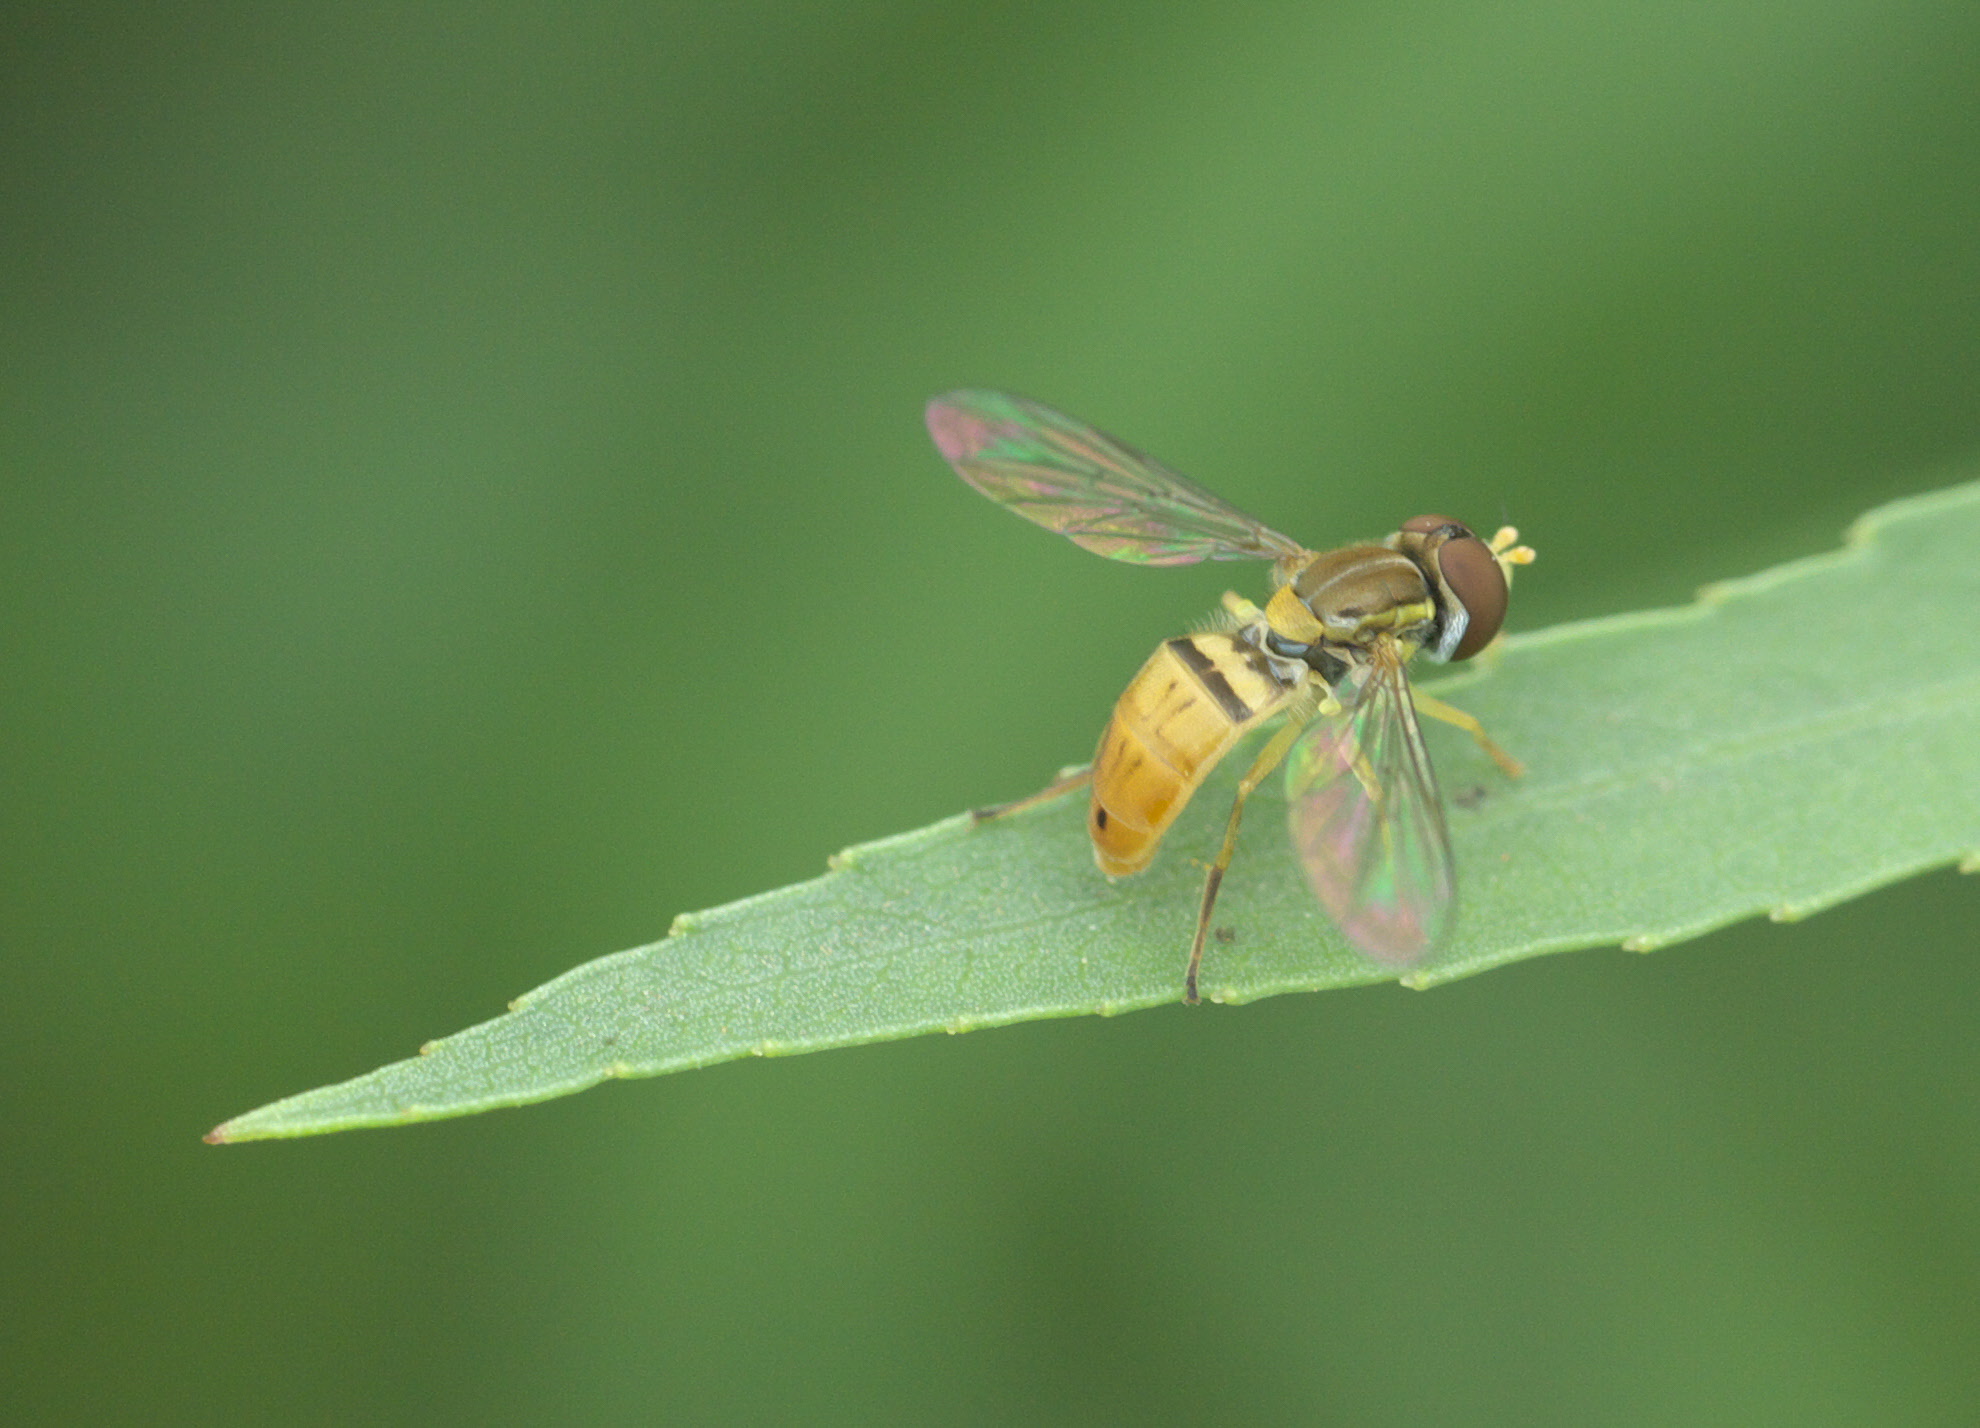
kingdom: Animalia
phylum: Arthropoda
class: Insecta
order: Diptera
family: Syrphidae
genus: Toxomerus
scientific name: Toxomerus marginatus
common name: Syrphid fly
